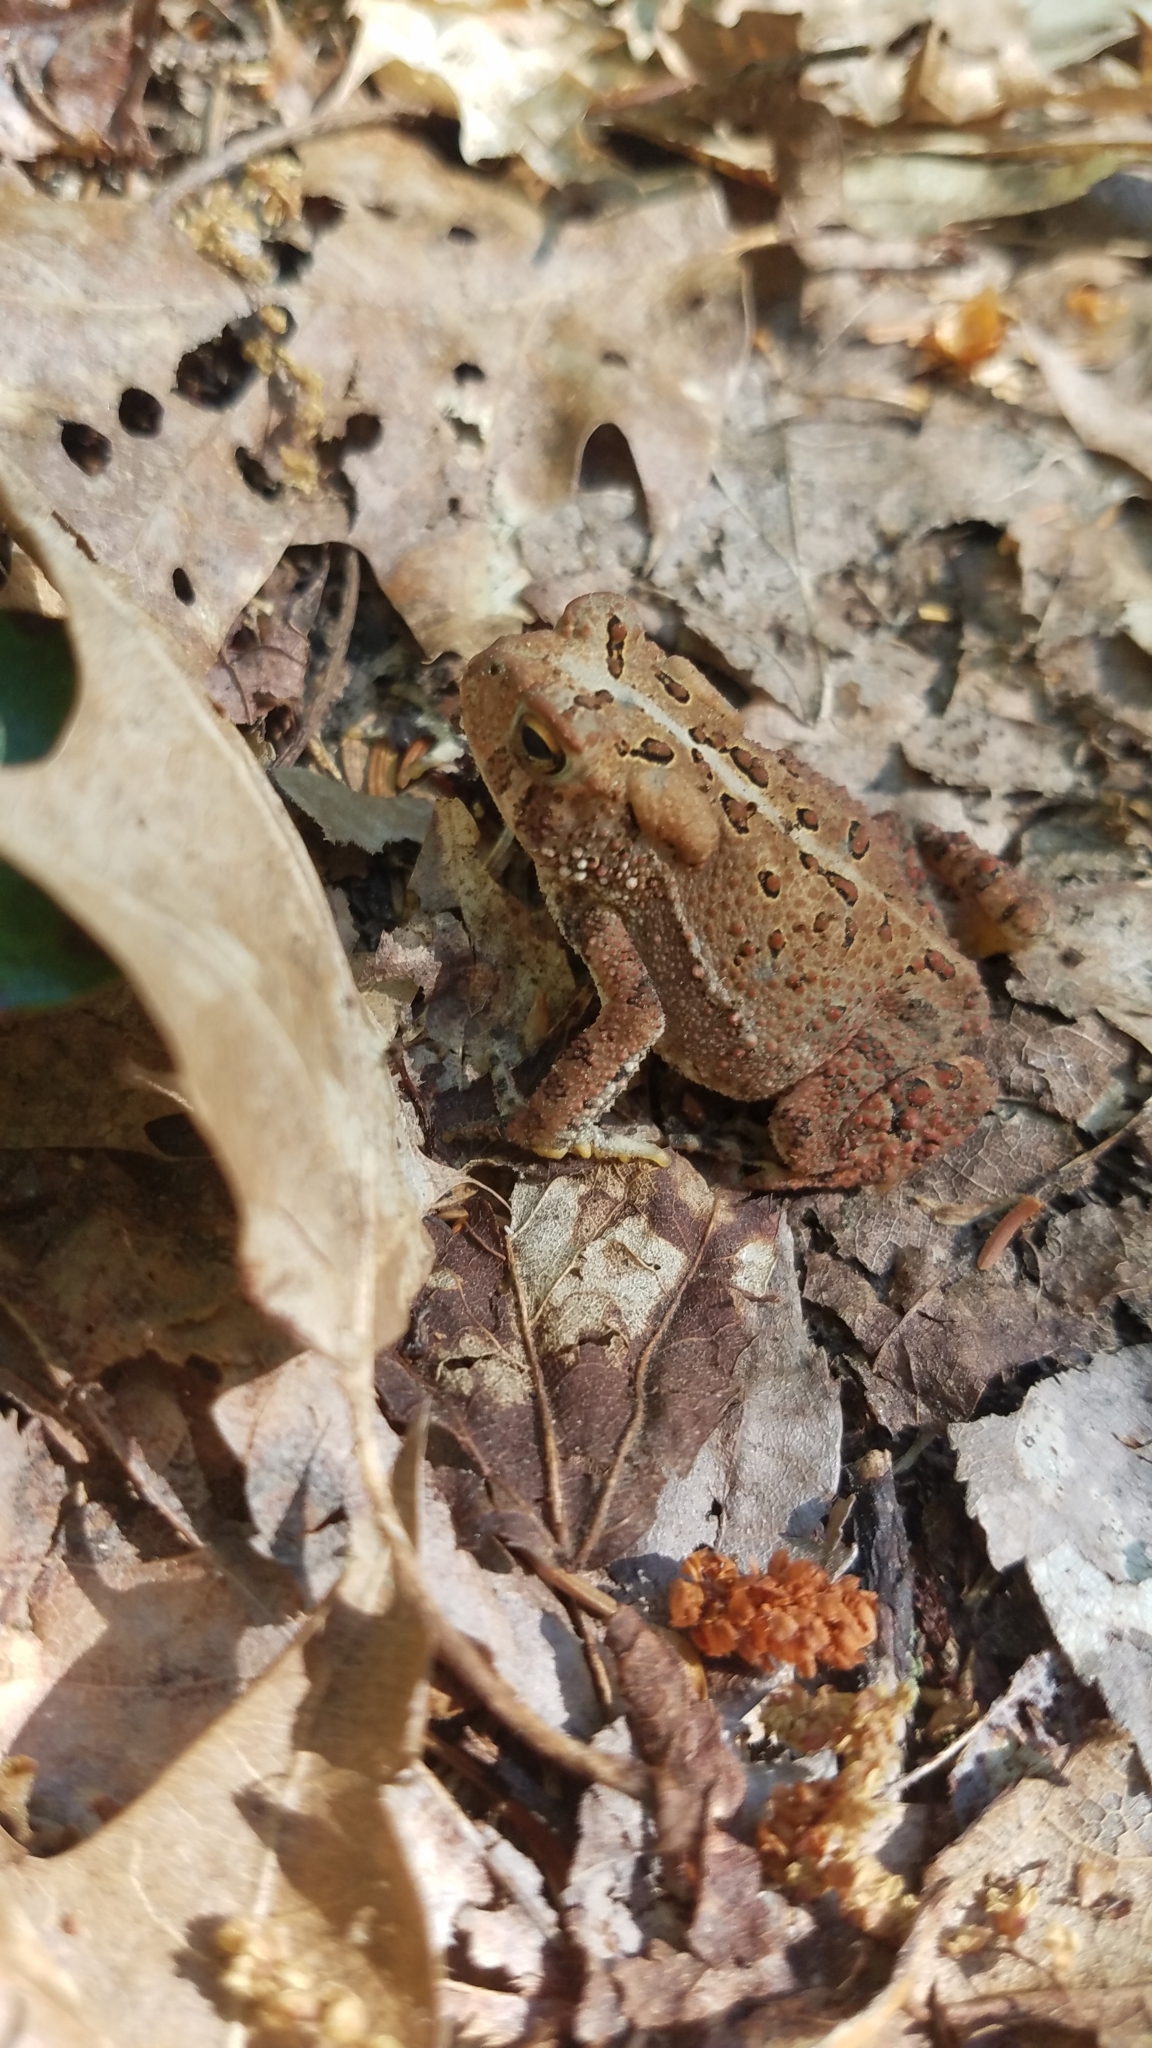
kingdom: Animalia
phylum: Chordata
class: Amphibia
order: Anura
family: Bufonidae
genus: Anaxyrus
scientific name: Anaxyrus americanus
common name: American toad
